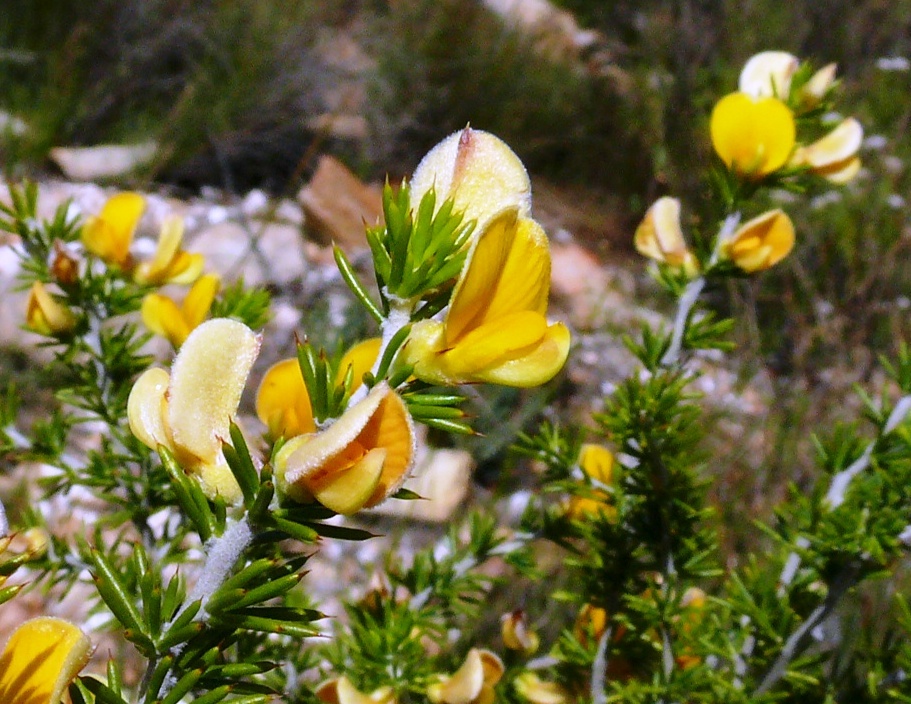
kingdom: Plantae
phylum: Tracheophyta
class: Magnoliopsida
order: Fabales
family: Fabaceae
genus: Aspalathus
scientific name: Aspalathus hirta
